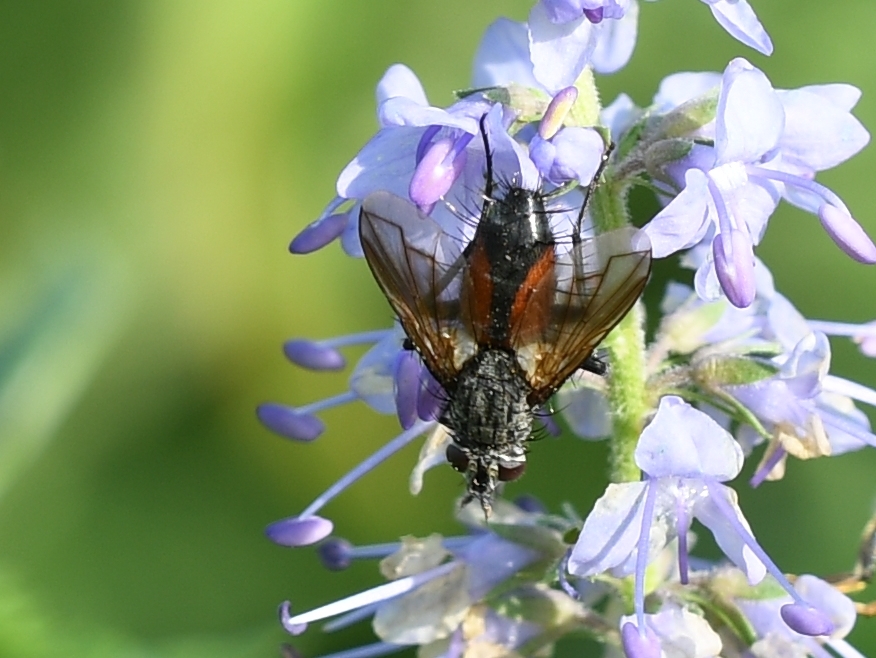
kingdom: Animalia
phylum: Arthropoda
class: Insecta
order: Diptera
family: Tachinidae
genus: Eriothrix
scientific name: Eriothrix rufomaculatus
